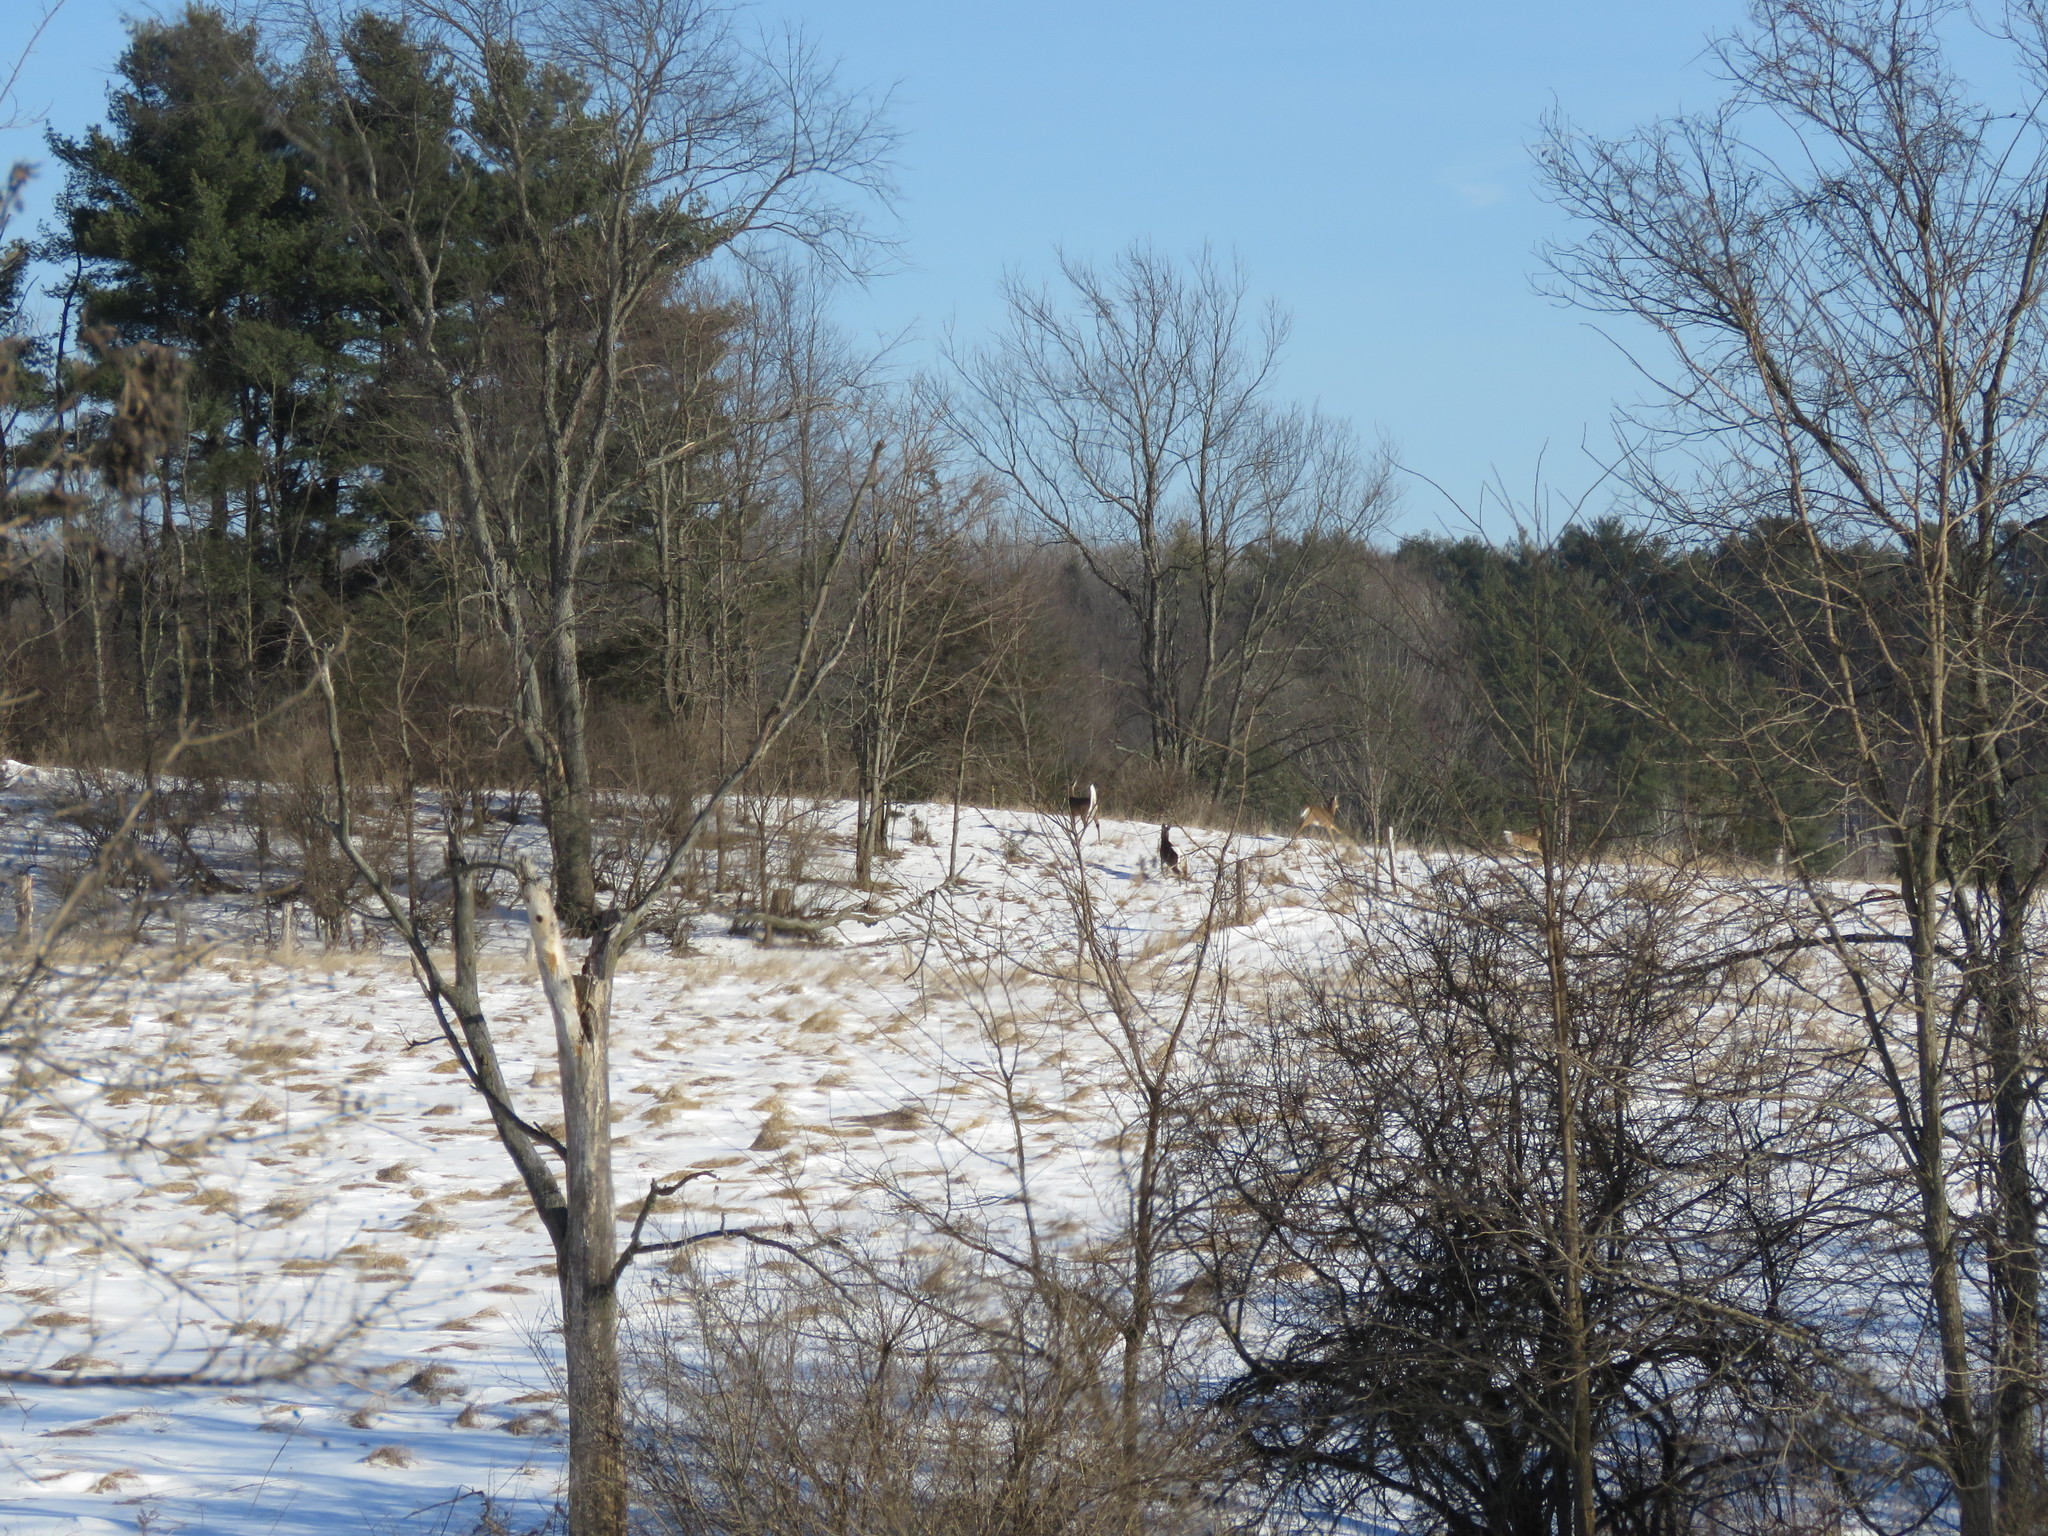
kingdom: Animalia
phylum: Chordata
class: Mammalia
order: Artiodactyla
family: Cervidae
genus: Odocoileus
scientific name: Odocoileus virginianus
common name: White-tailed deer
